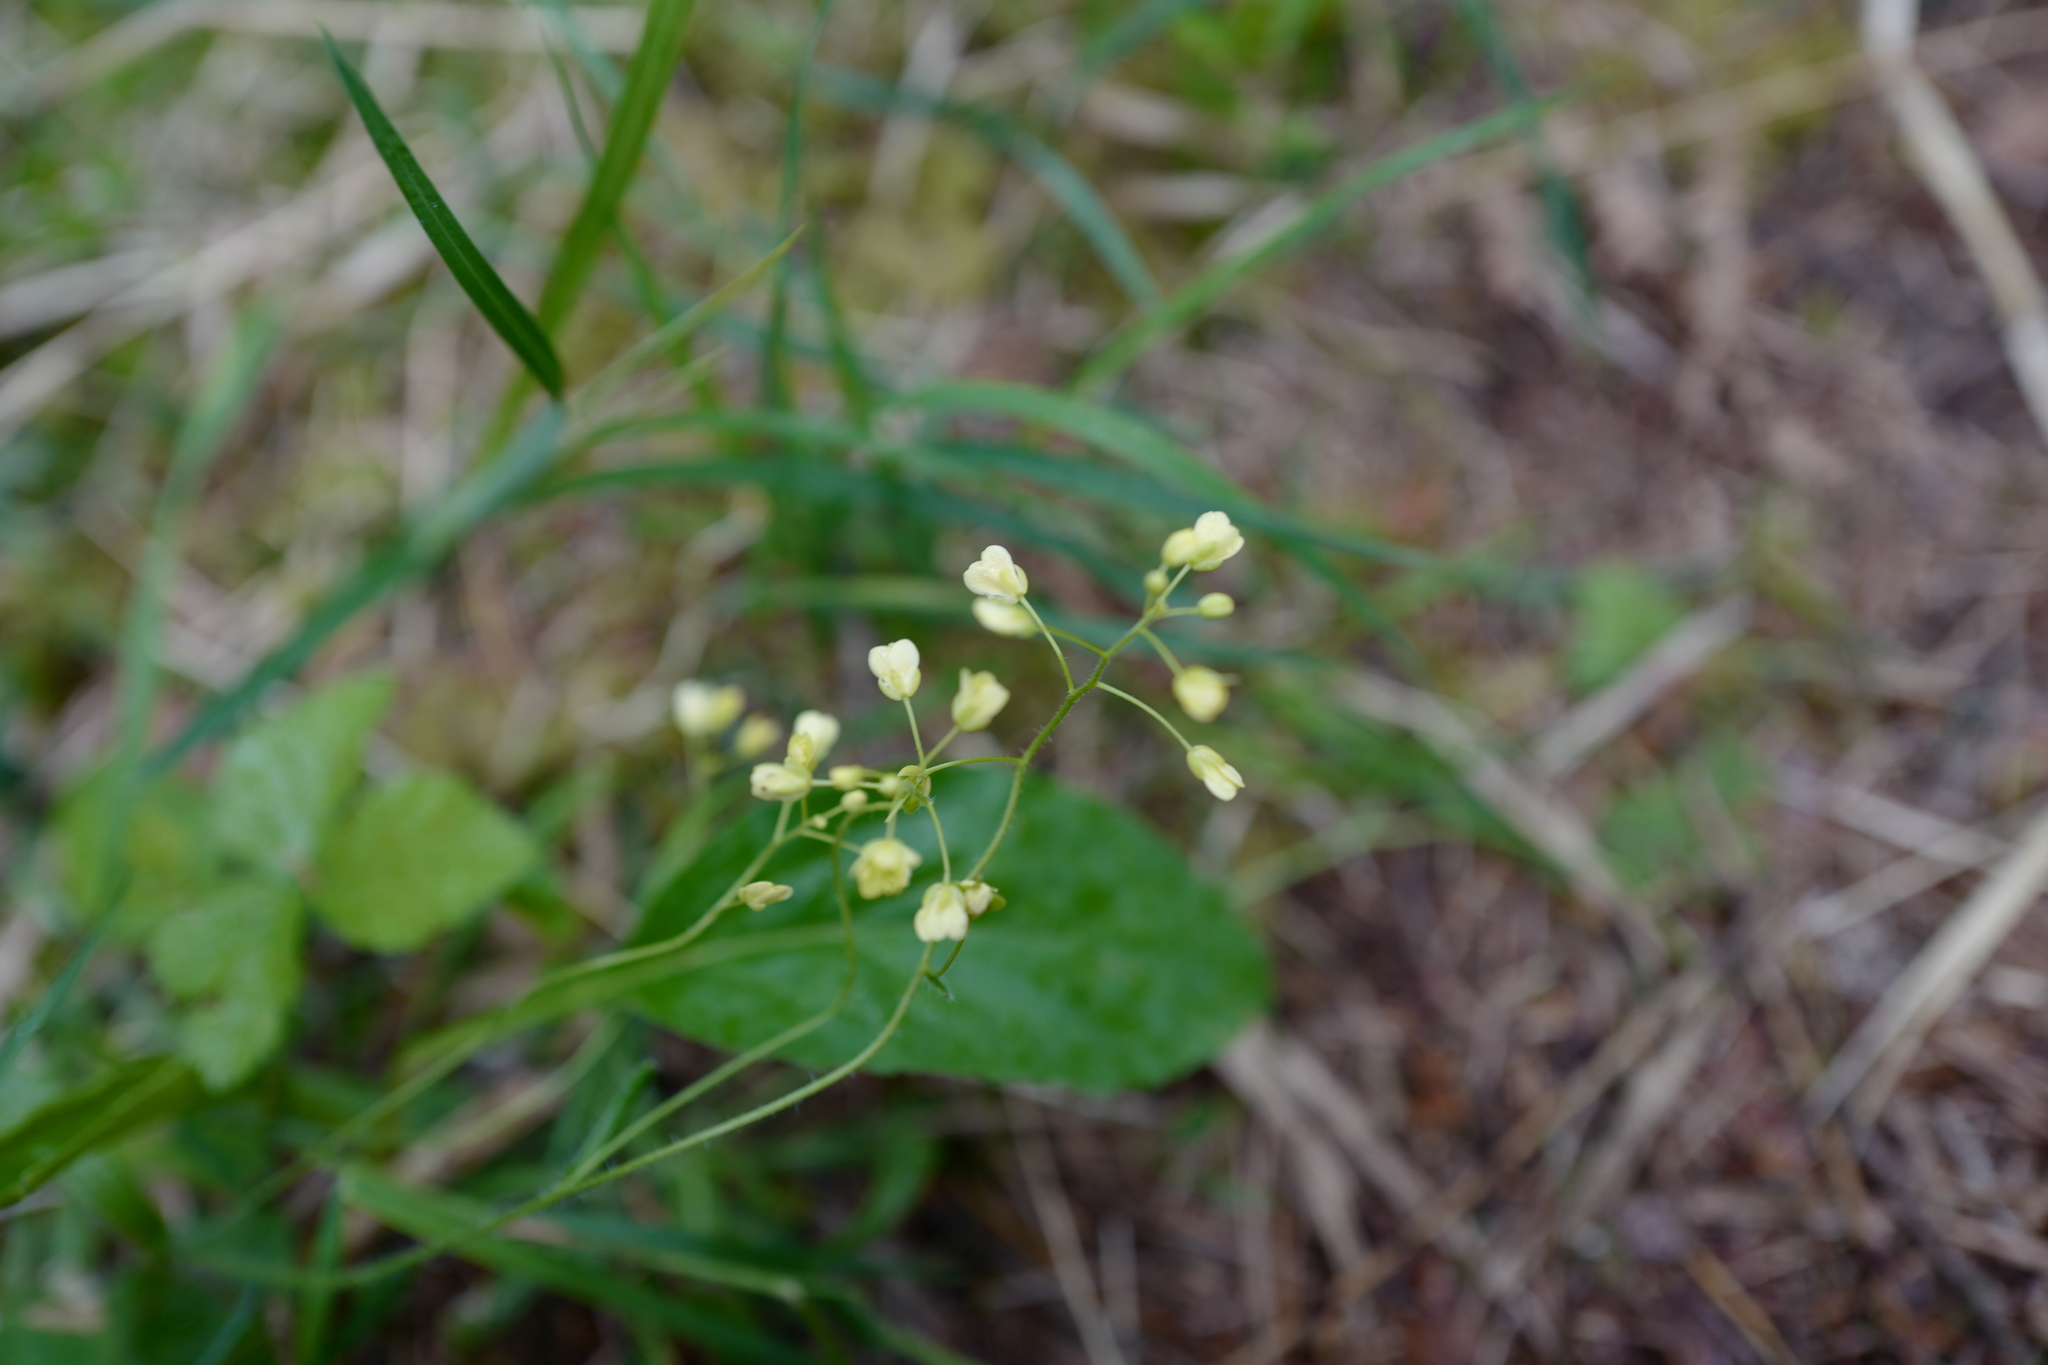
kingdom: Plantae
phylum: Tracheophyta
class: Magnoliopsida
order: Brassicales
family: Brassicaceae
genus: Biscutella
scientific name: Biscutella laevigata
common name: Buckler mustard
